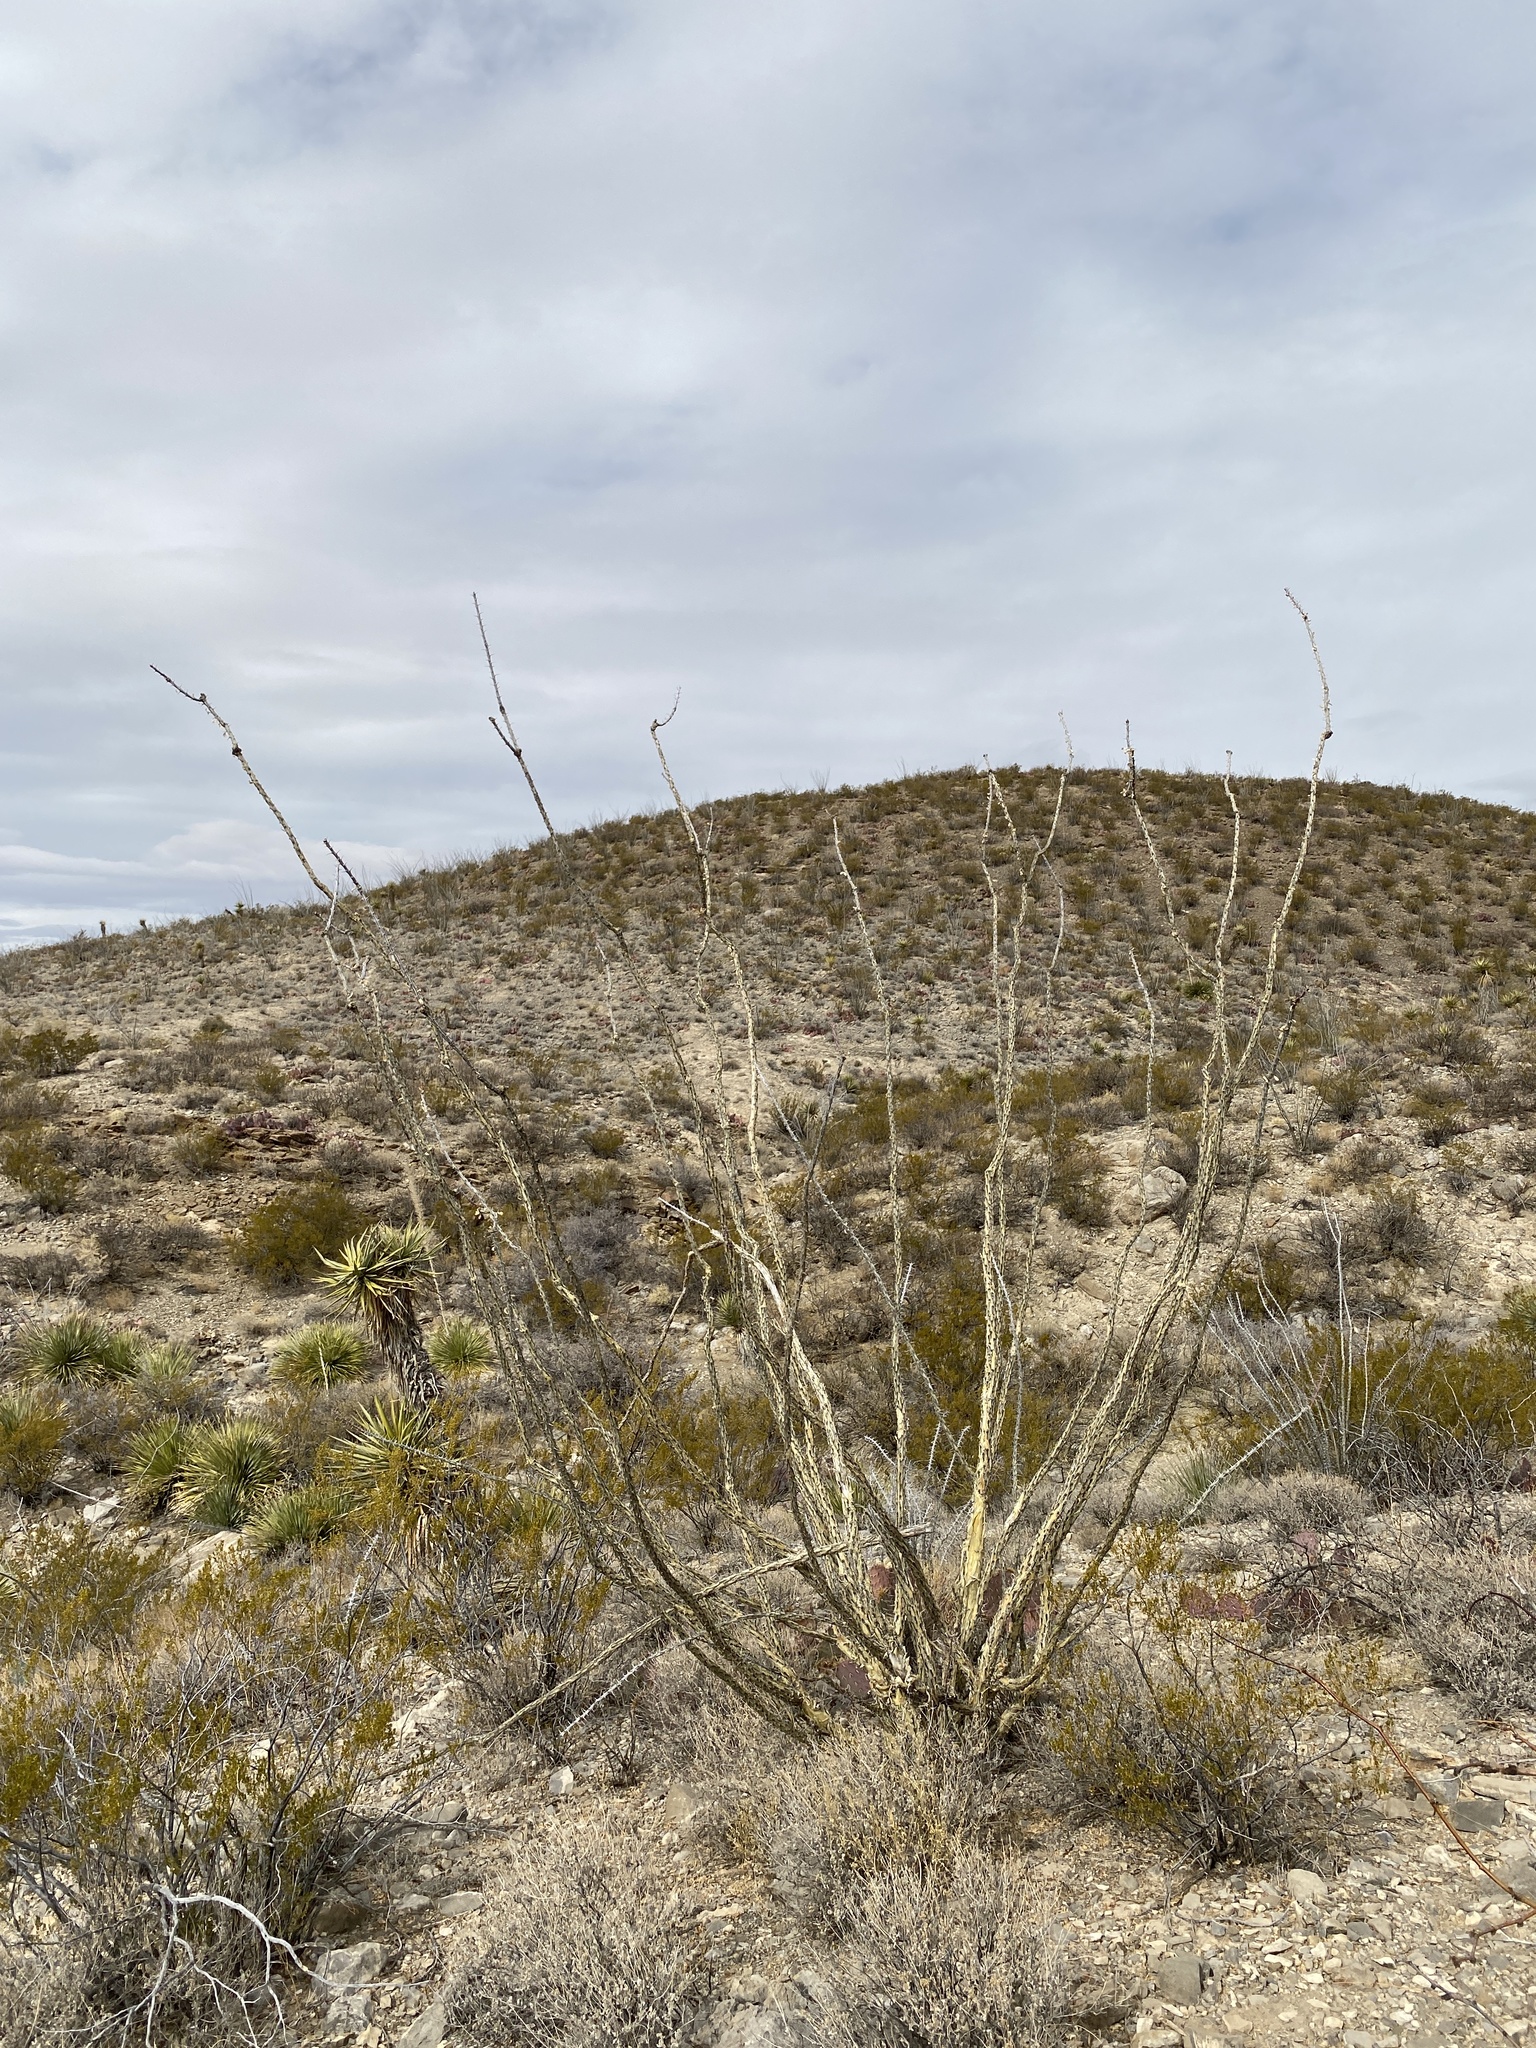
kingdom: Plantae
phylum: Tracheophyta
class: Magnoliopsida
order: Ericales
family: Fouquieriaceae
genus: Fouquieria
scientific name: Fouquieria splendens
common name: Vine-cactus
